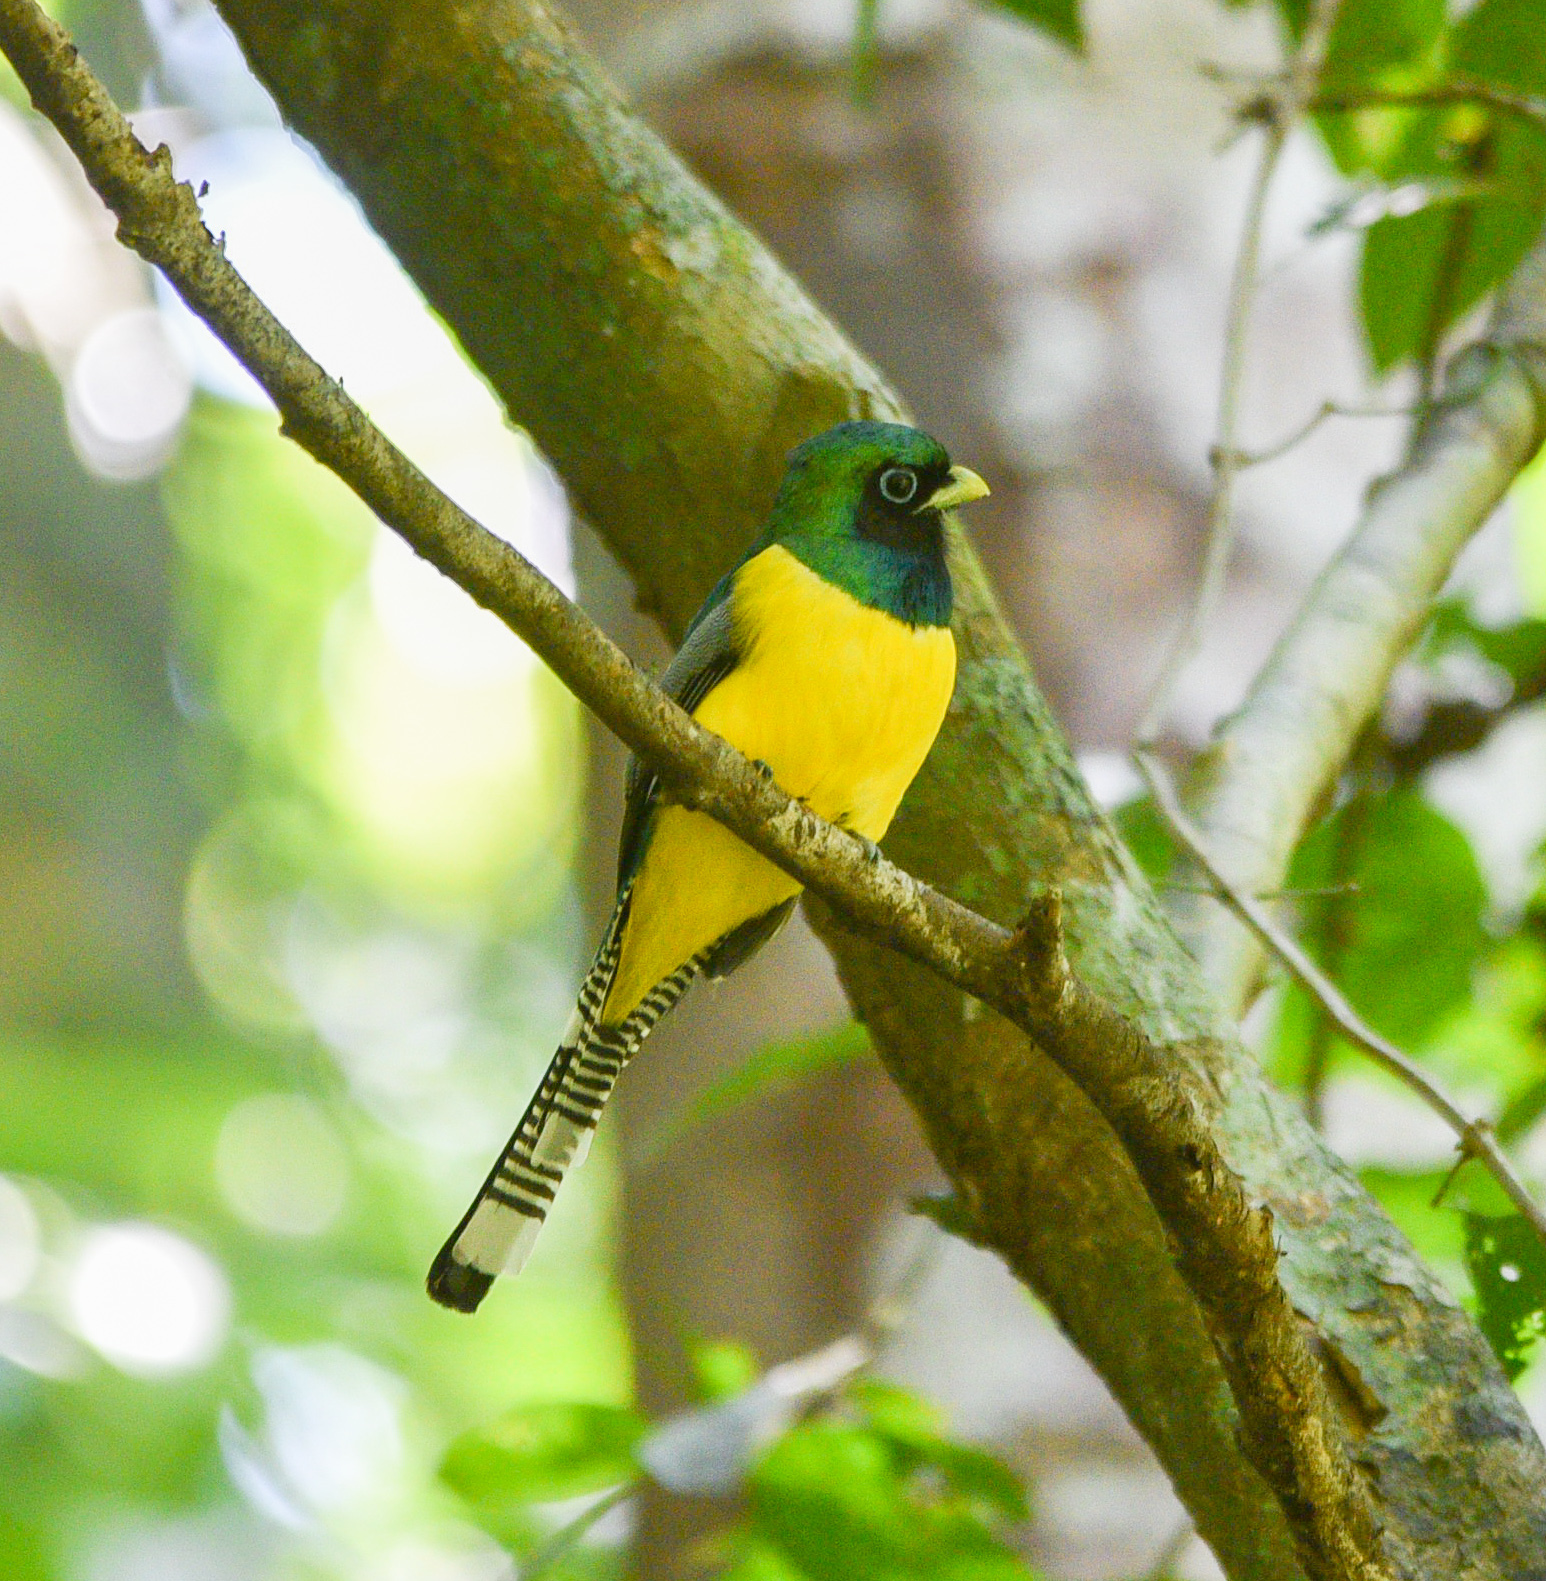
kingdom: Animalia
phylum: Chordata
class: Aves
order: Trogoniformes
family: Trogonidae
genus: Trogon
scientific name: Trogon rufus
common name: Black-throated trogon
